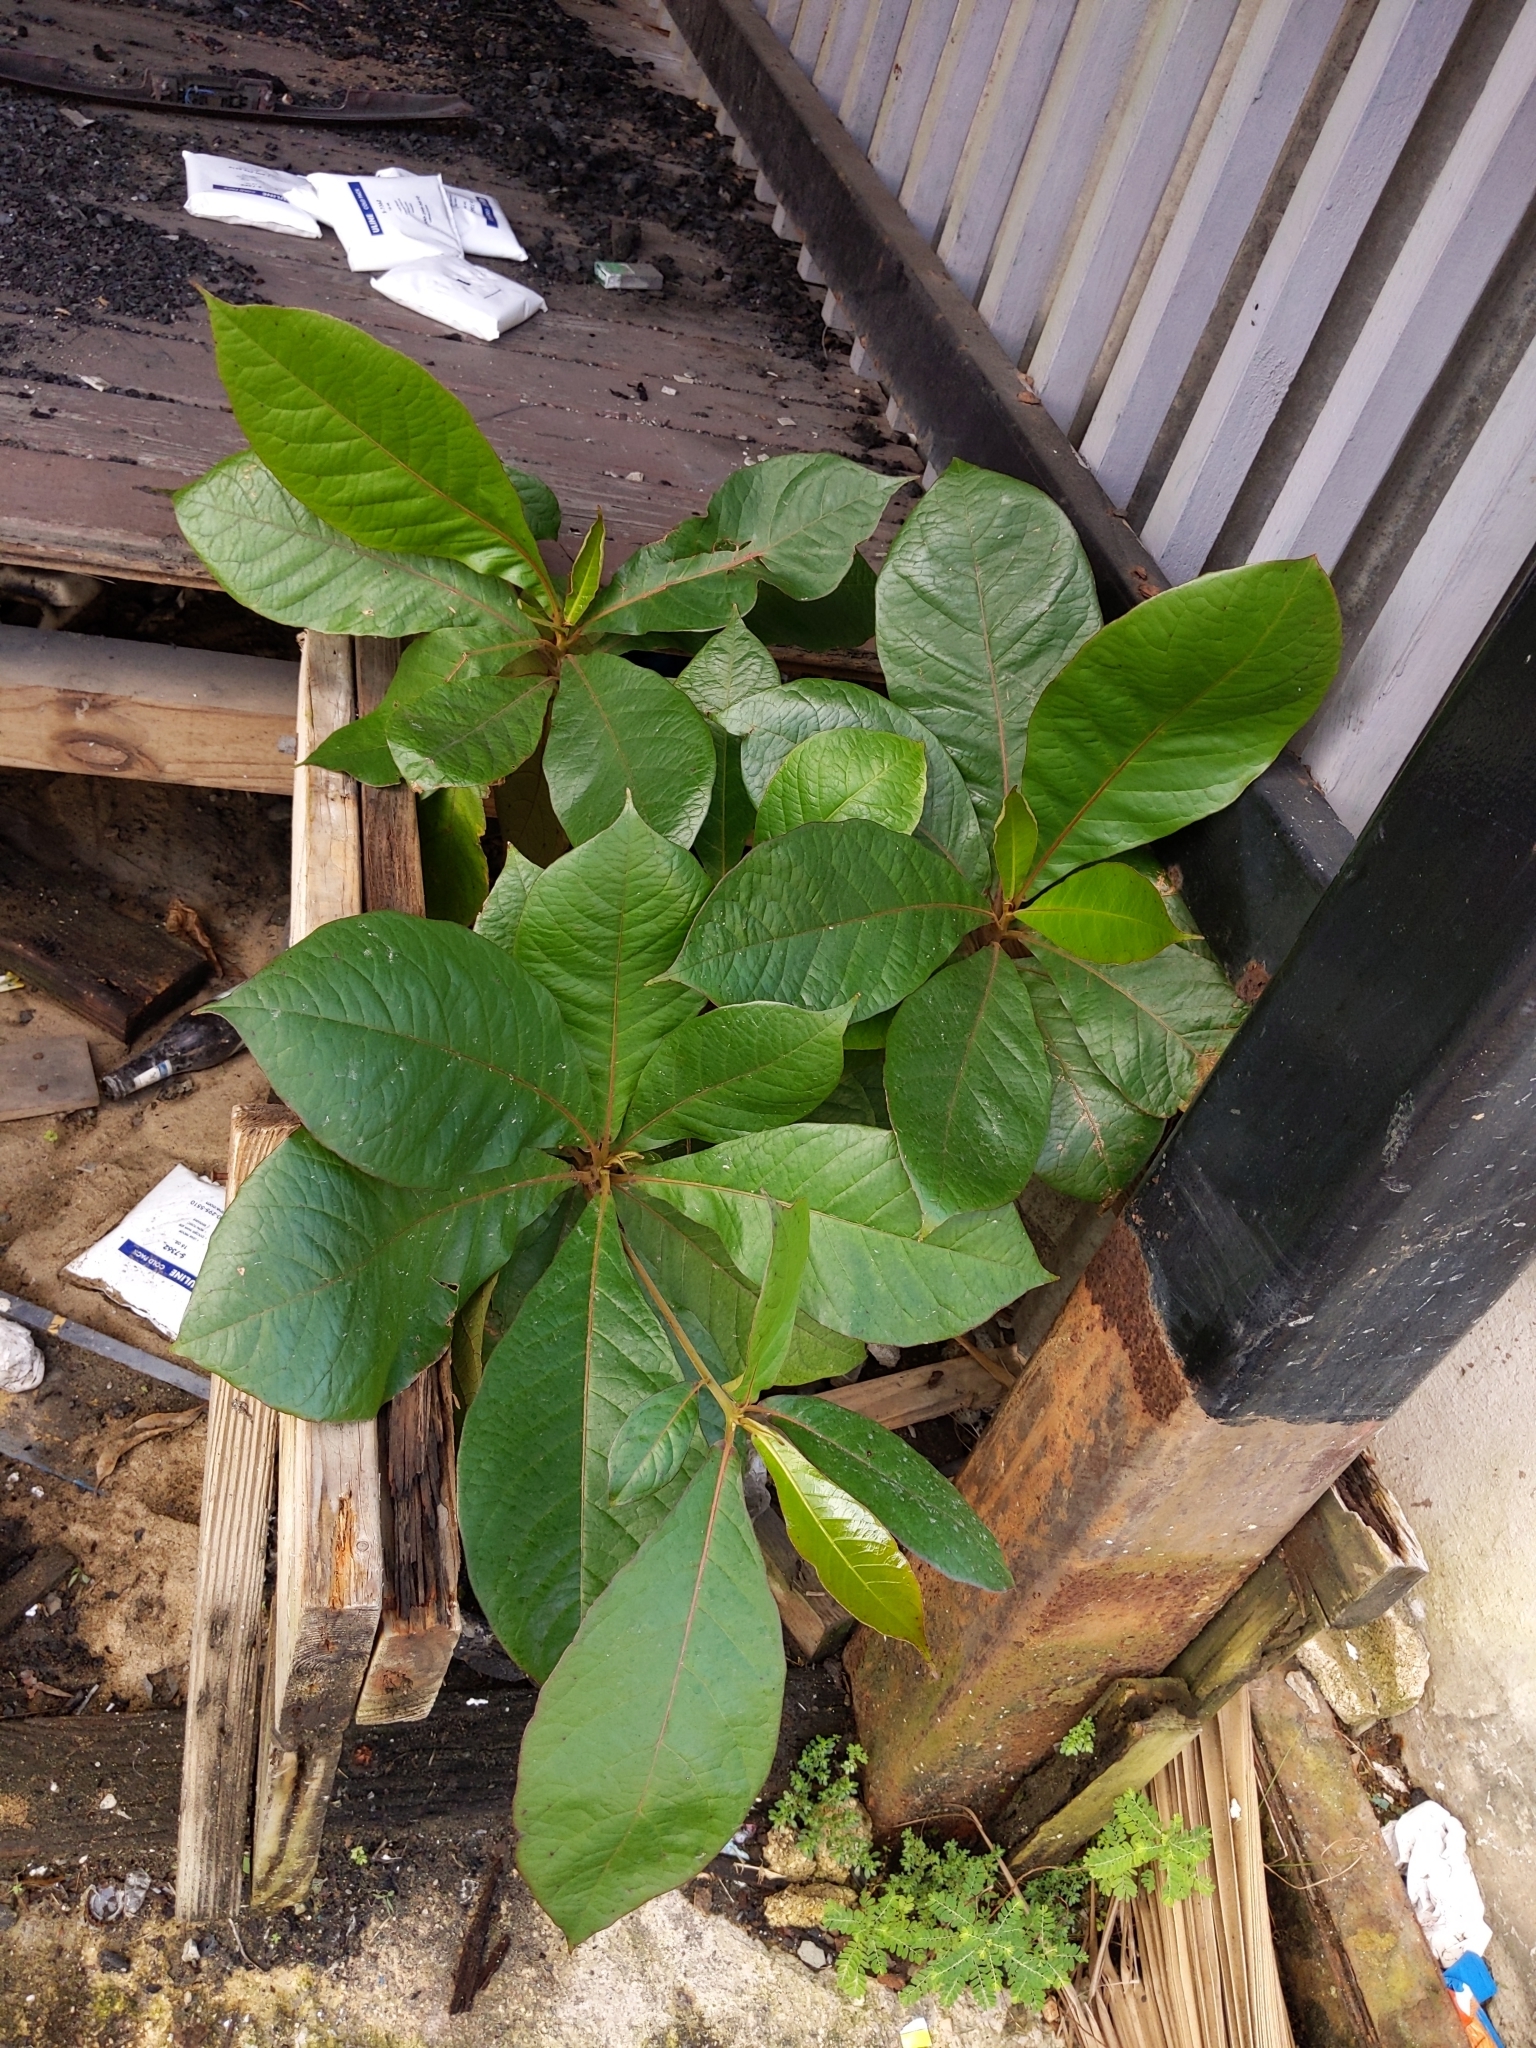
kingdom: Plantae
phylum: Tracheophyta
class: Magnoliopsida
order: Myrtales
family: Combretaceae
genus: Terminalia
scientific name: Terminalia catappa
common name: Tropical almond
